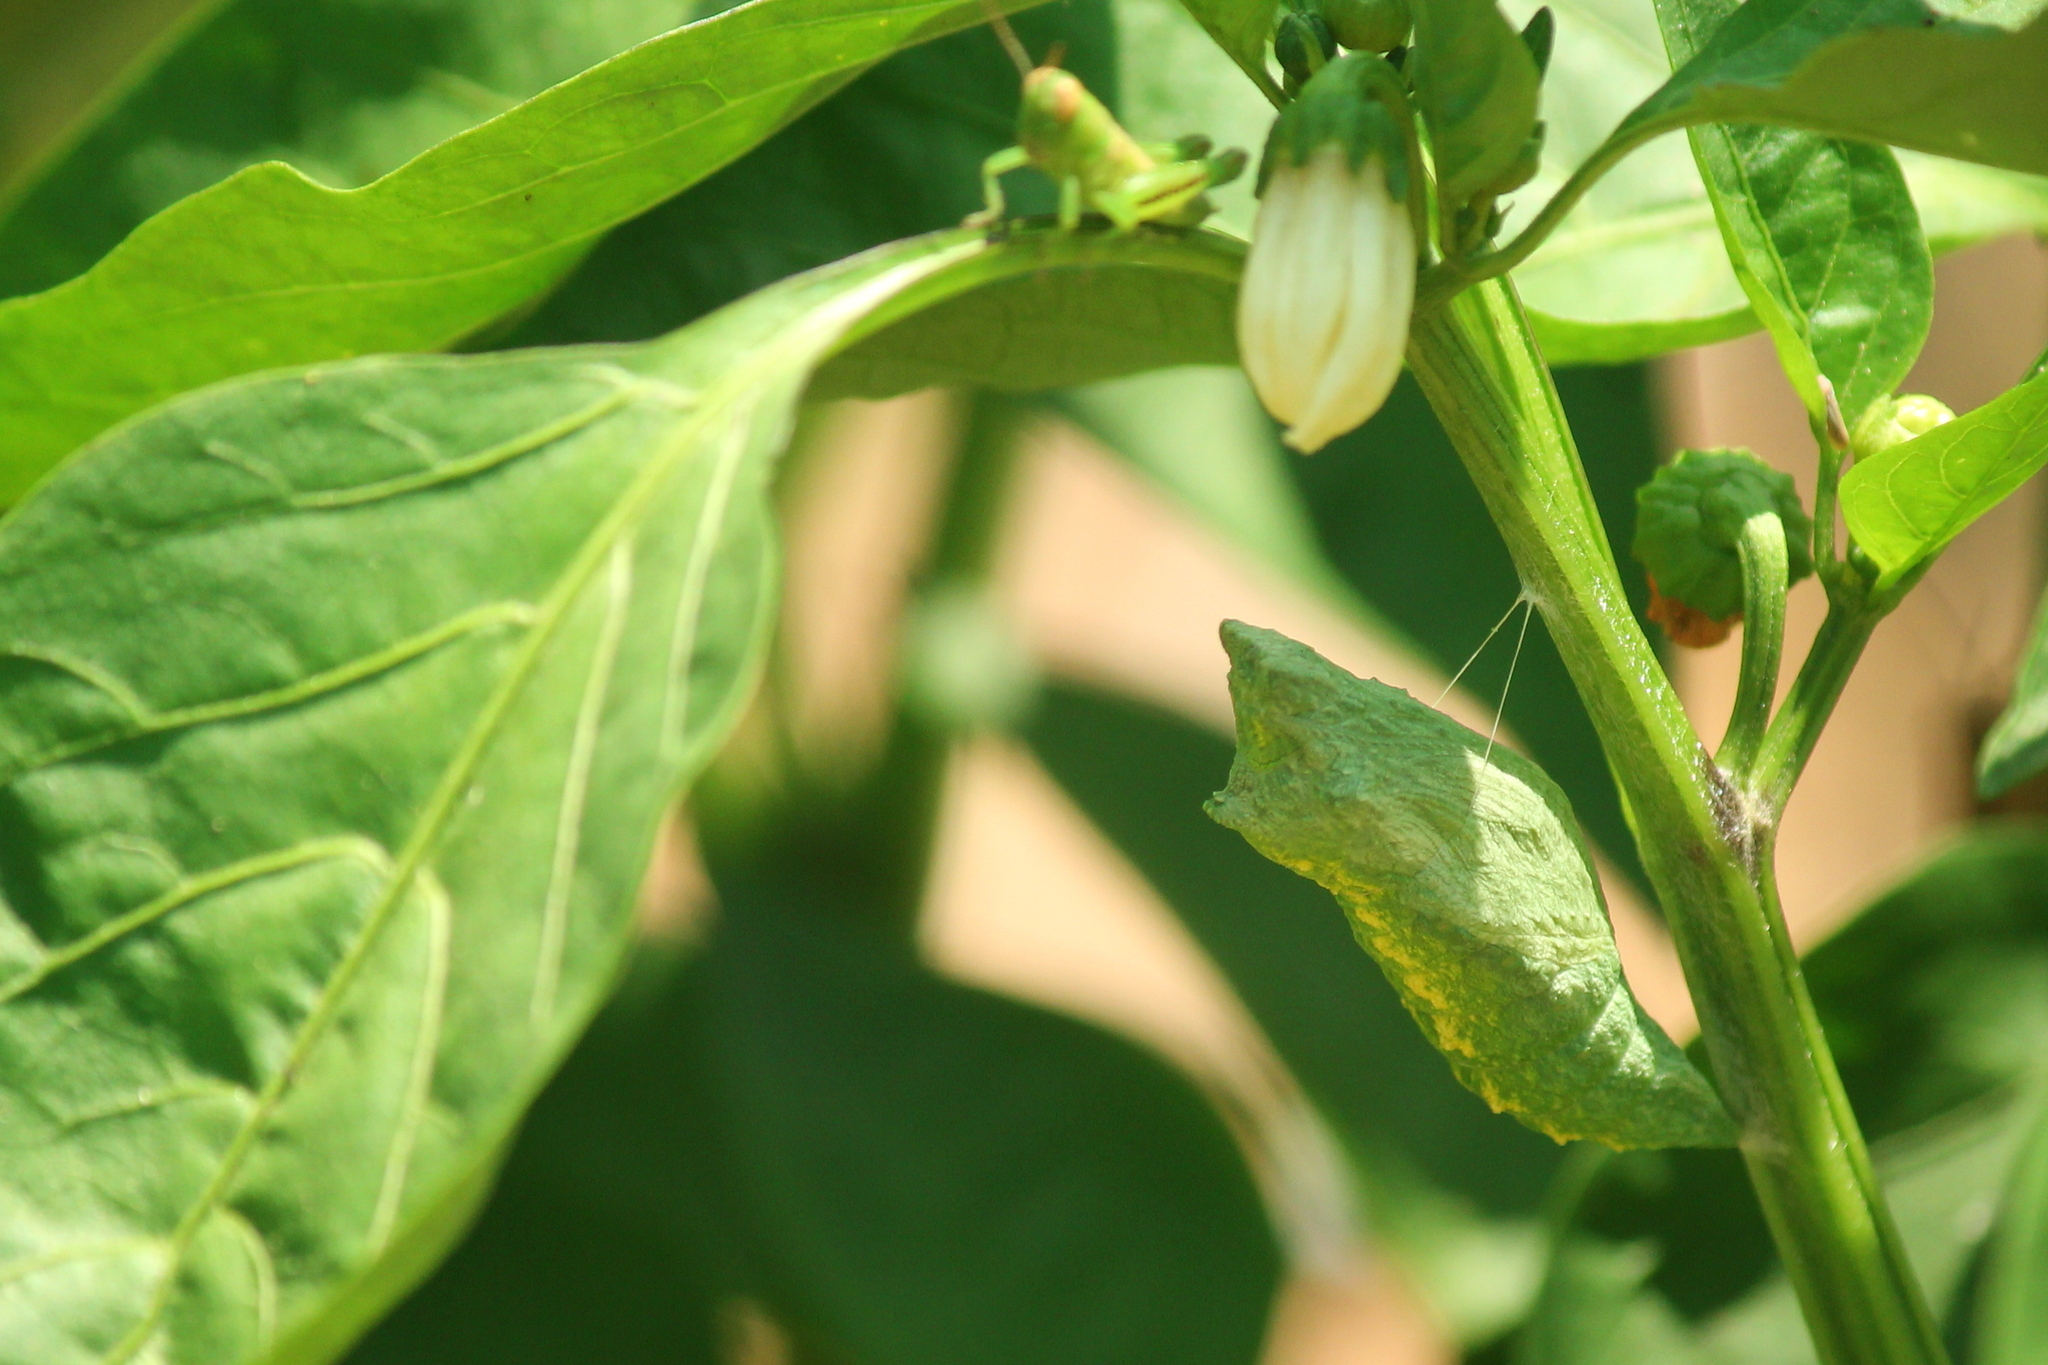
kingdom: Animalia
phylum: Arthropoda
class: Insecta
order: Lepidoptera
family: Papilionidae
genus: Papilio
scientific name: Papilio polyxenes
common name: Black swallowtail
